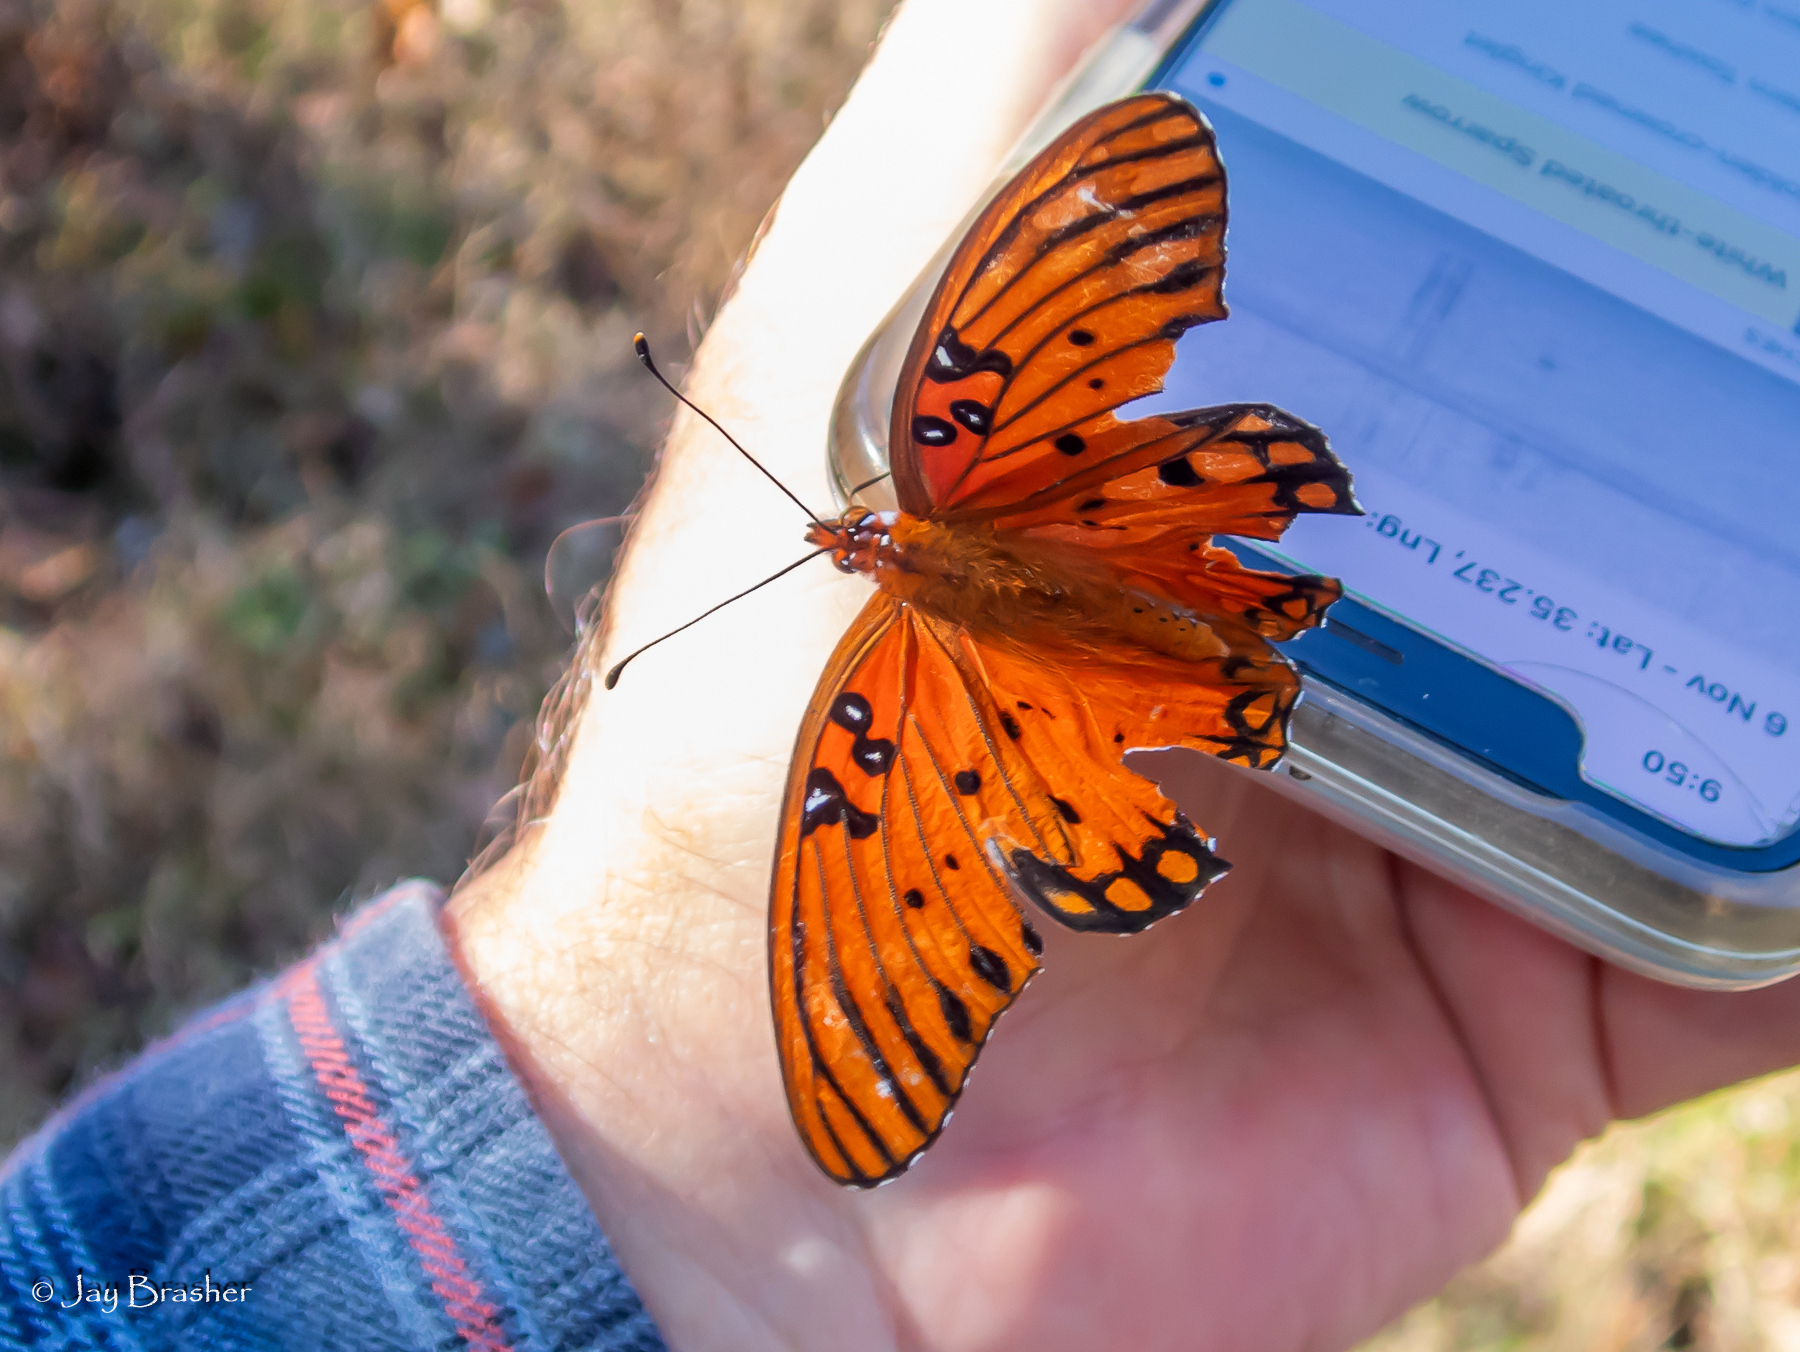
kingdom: Animalia
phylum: Arthropoda
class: Insecta
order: Lepidoptera
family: Nymphalidae
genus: Dione
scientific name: Dione vanillae
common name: Gulf fritillary
